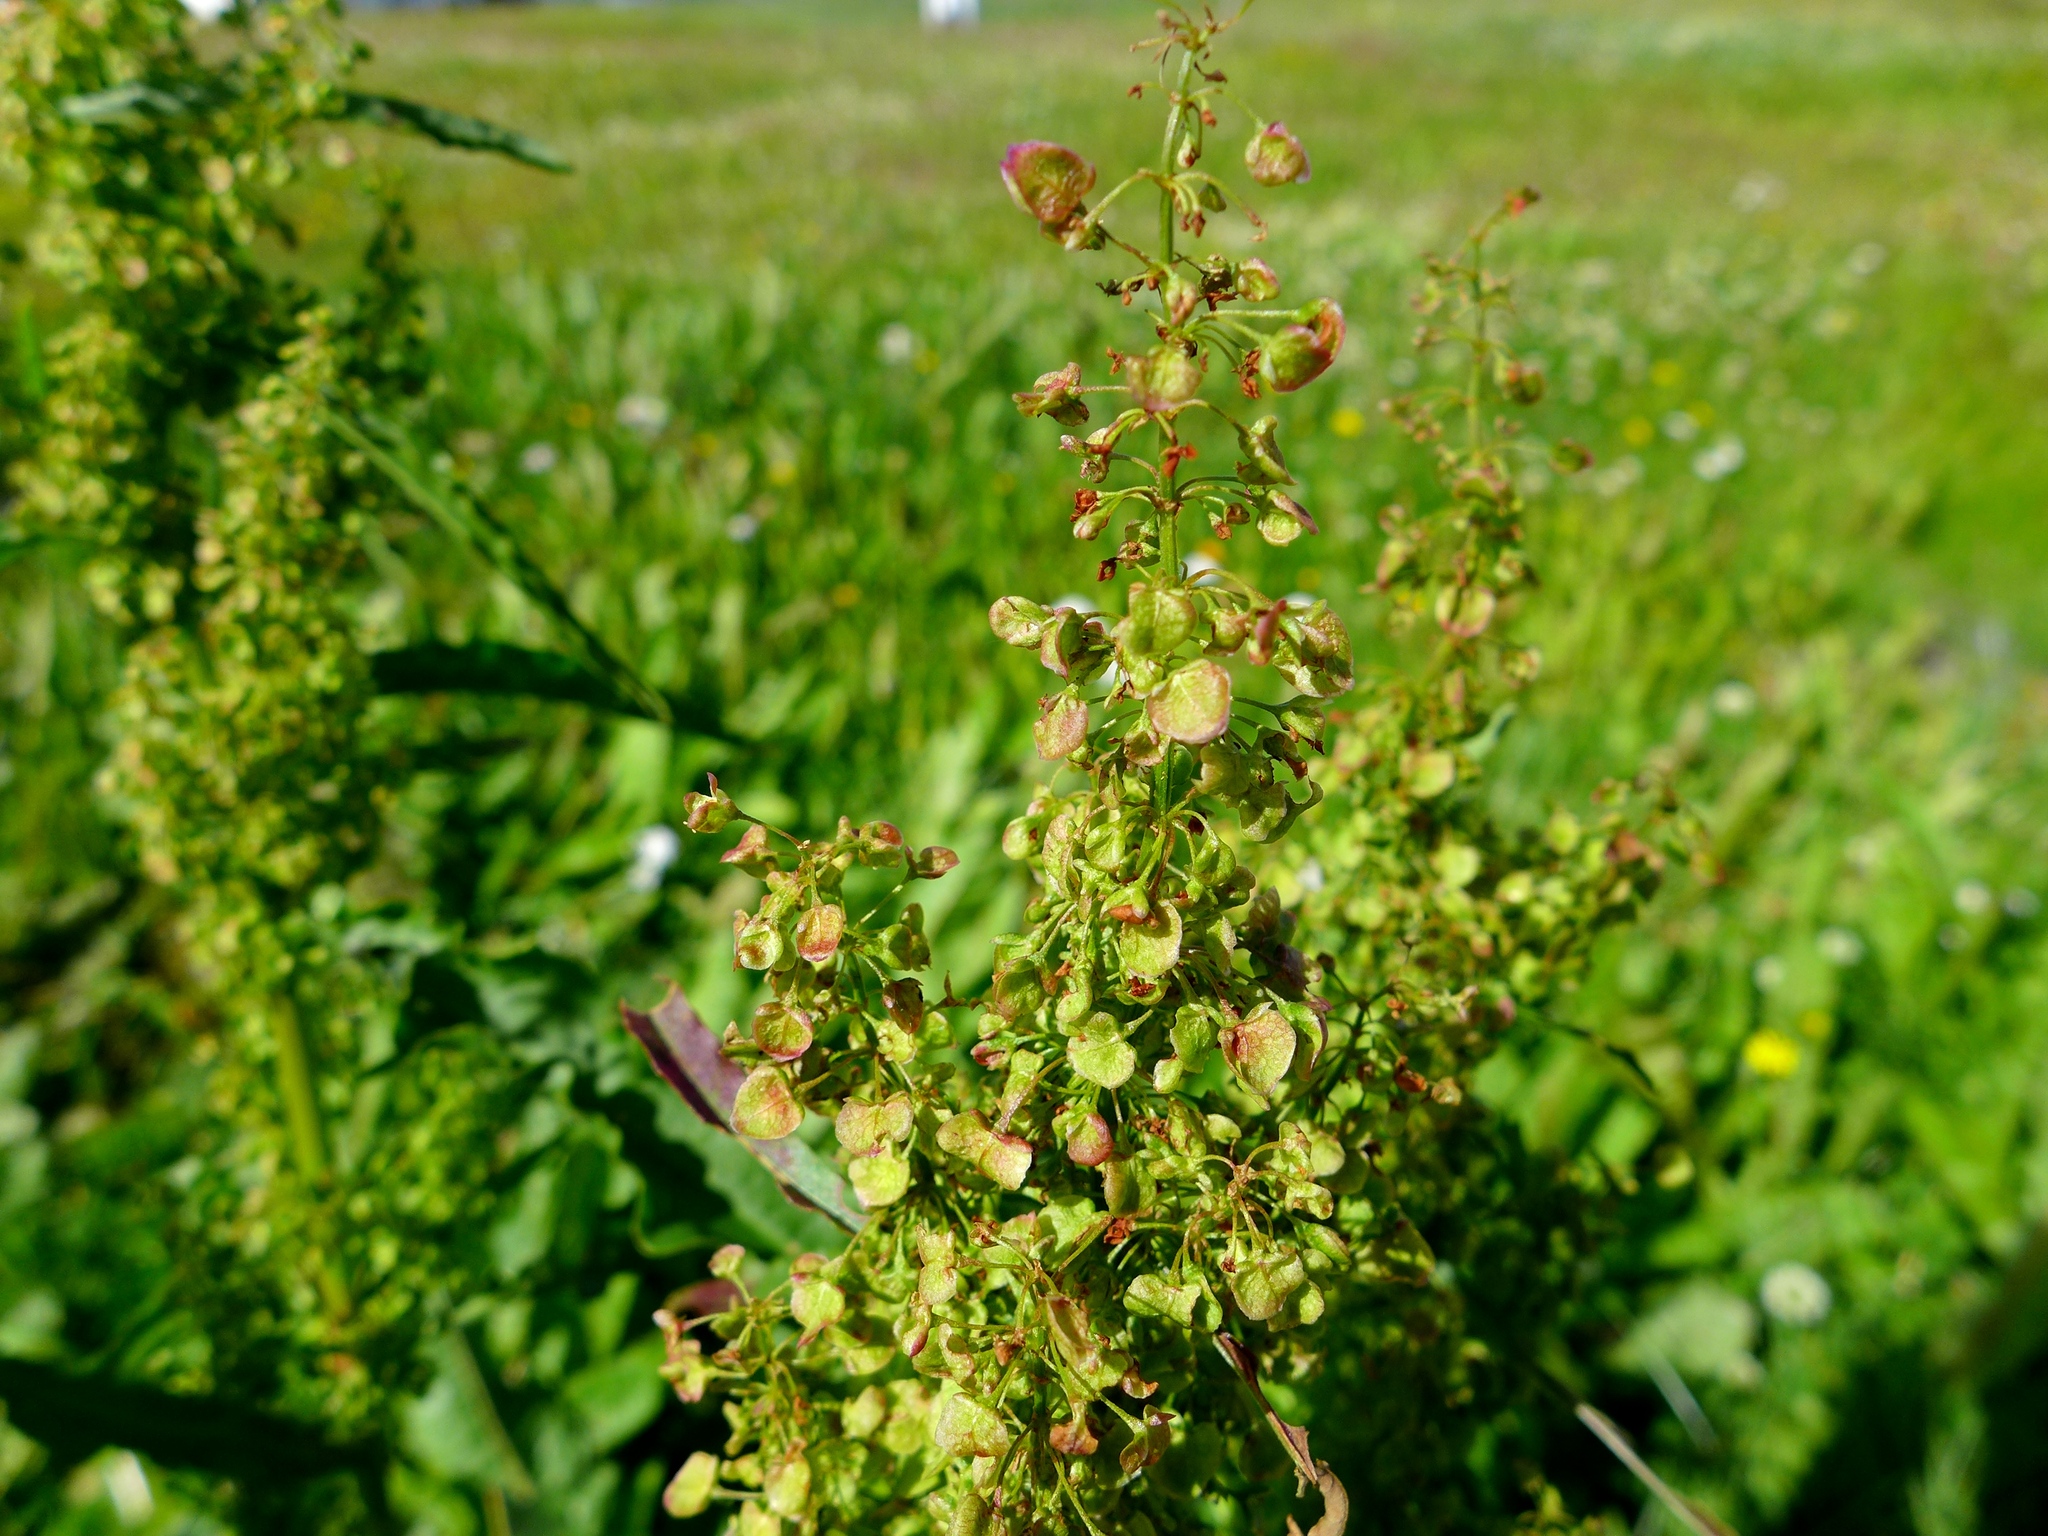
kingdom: Plantae
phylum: Tracheophyta
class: Magnoliopsida
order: Caryophyllales
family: Polygonaceae
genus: Rumex
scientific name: Rumex longifolius
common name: Dooryard dock
